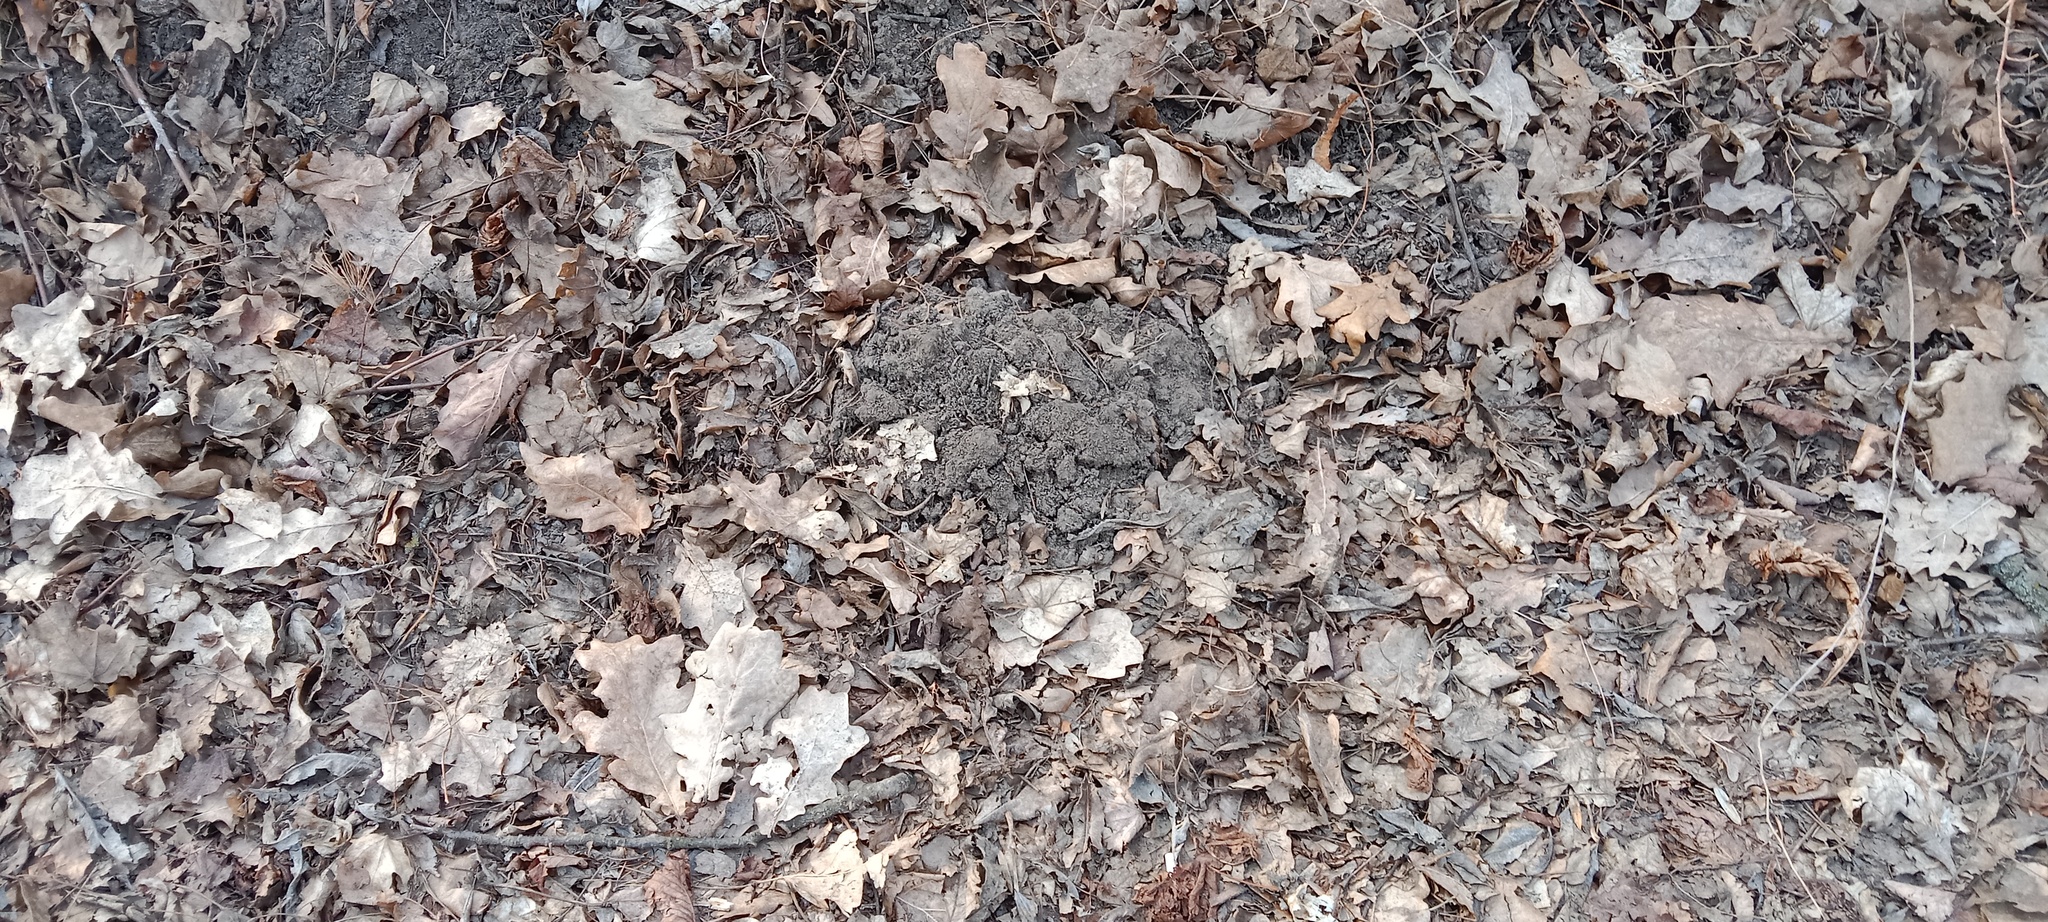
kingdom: Animalia
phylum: Chordata
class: Mammalia
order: Soricomorpha
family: Talpidae
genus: Talpa
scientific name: Talpa europaea
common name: European mole
